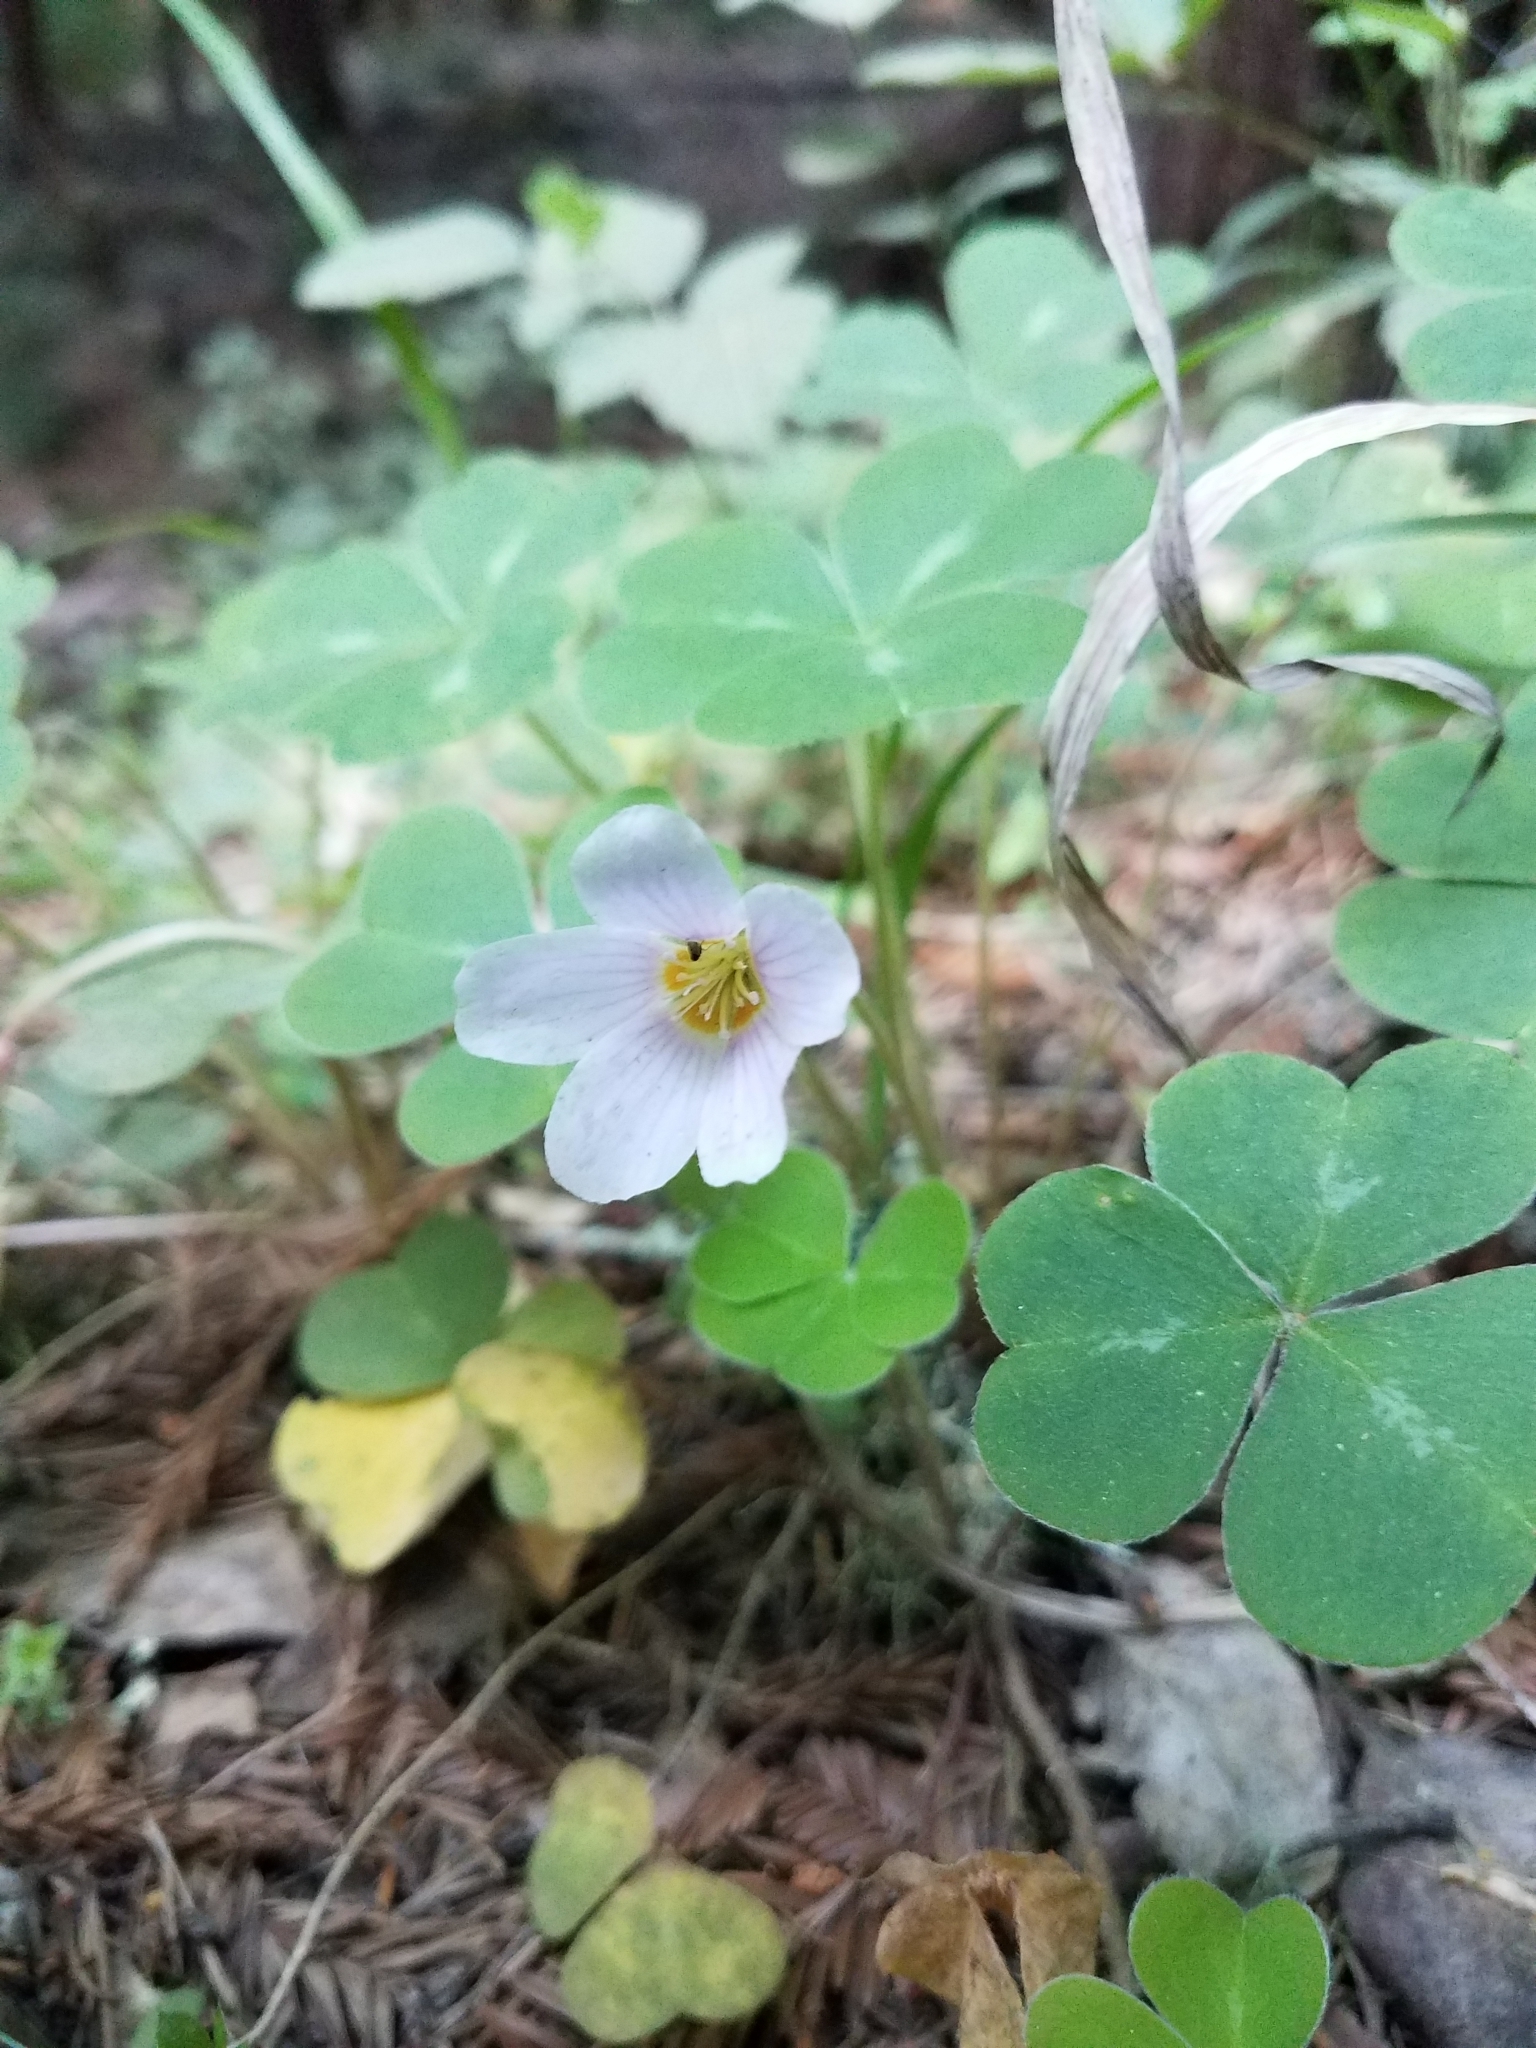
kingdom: Plantae
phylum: Tracheophyta
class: Magnoliopsida
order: Oxalidales
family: Oxalidaceae
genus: Oxalis
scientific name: Oxalis oregana
